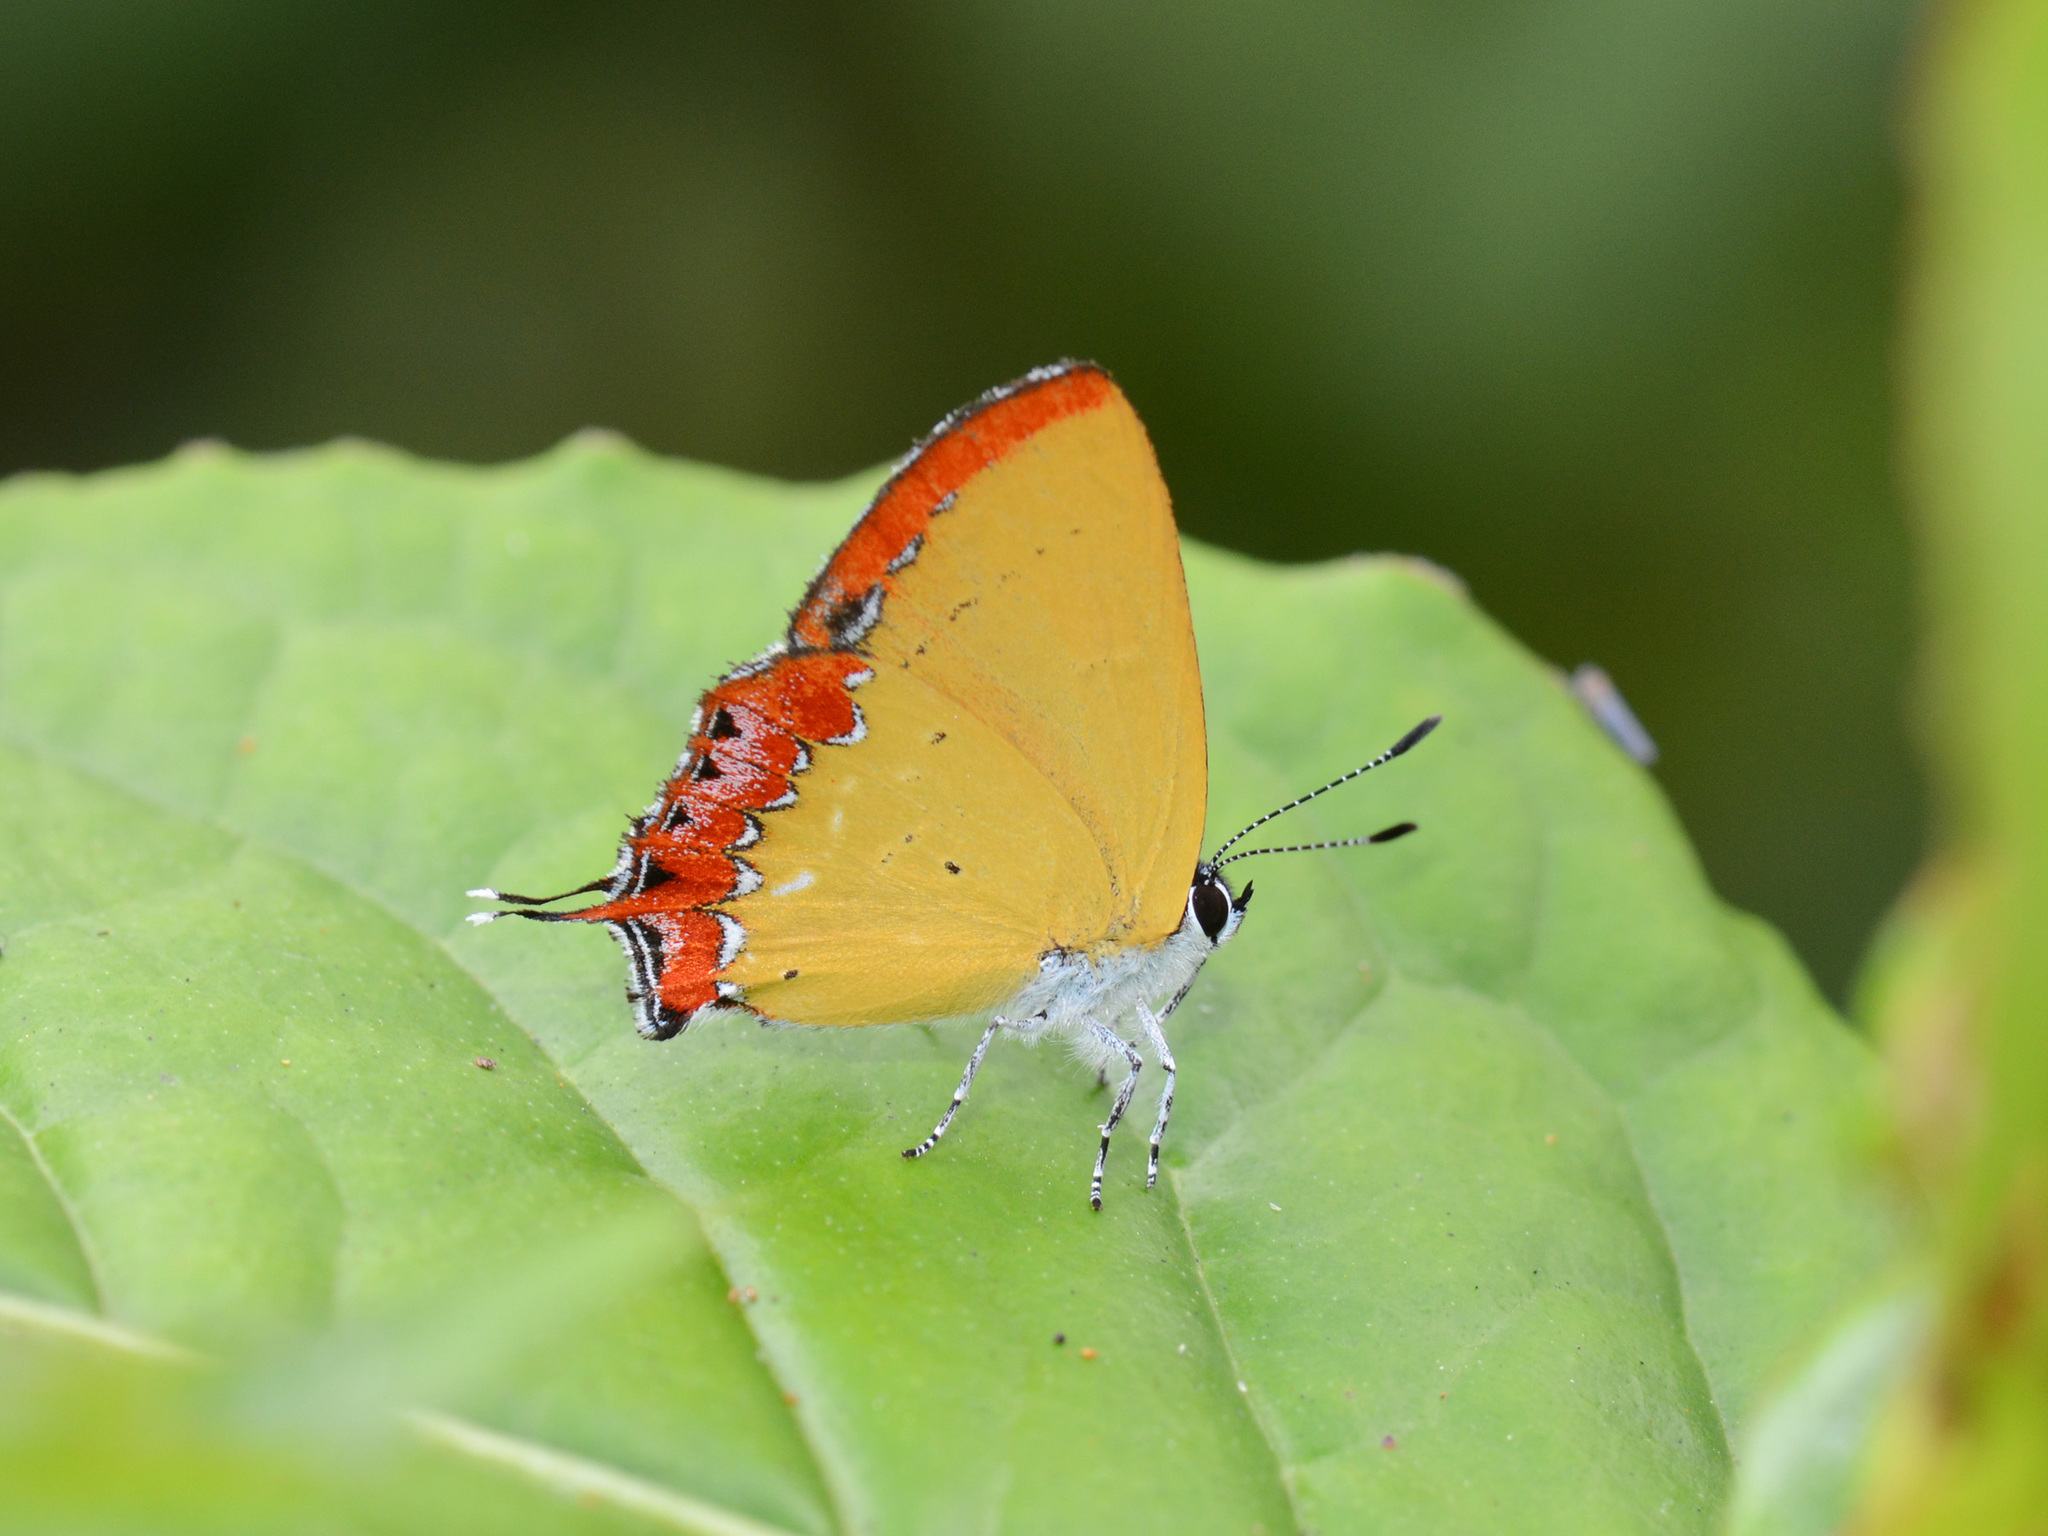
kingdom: Animalia
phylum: Arthropoda
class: Insecta
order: Lepidoptera
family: Lycaenidae
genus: Heliophorus
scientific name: Heliophorus epicles
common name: Purple sapphire
